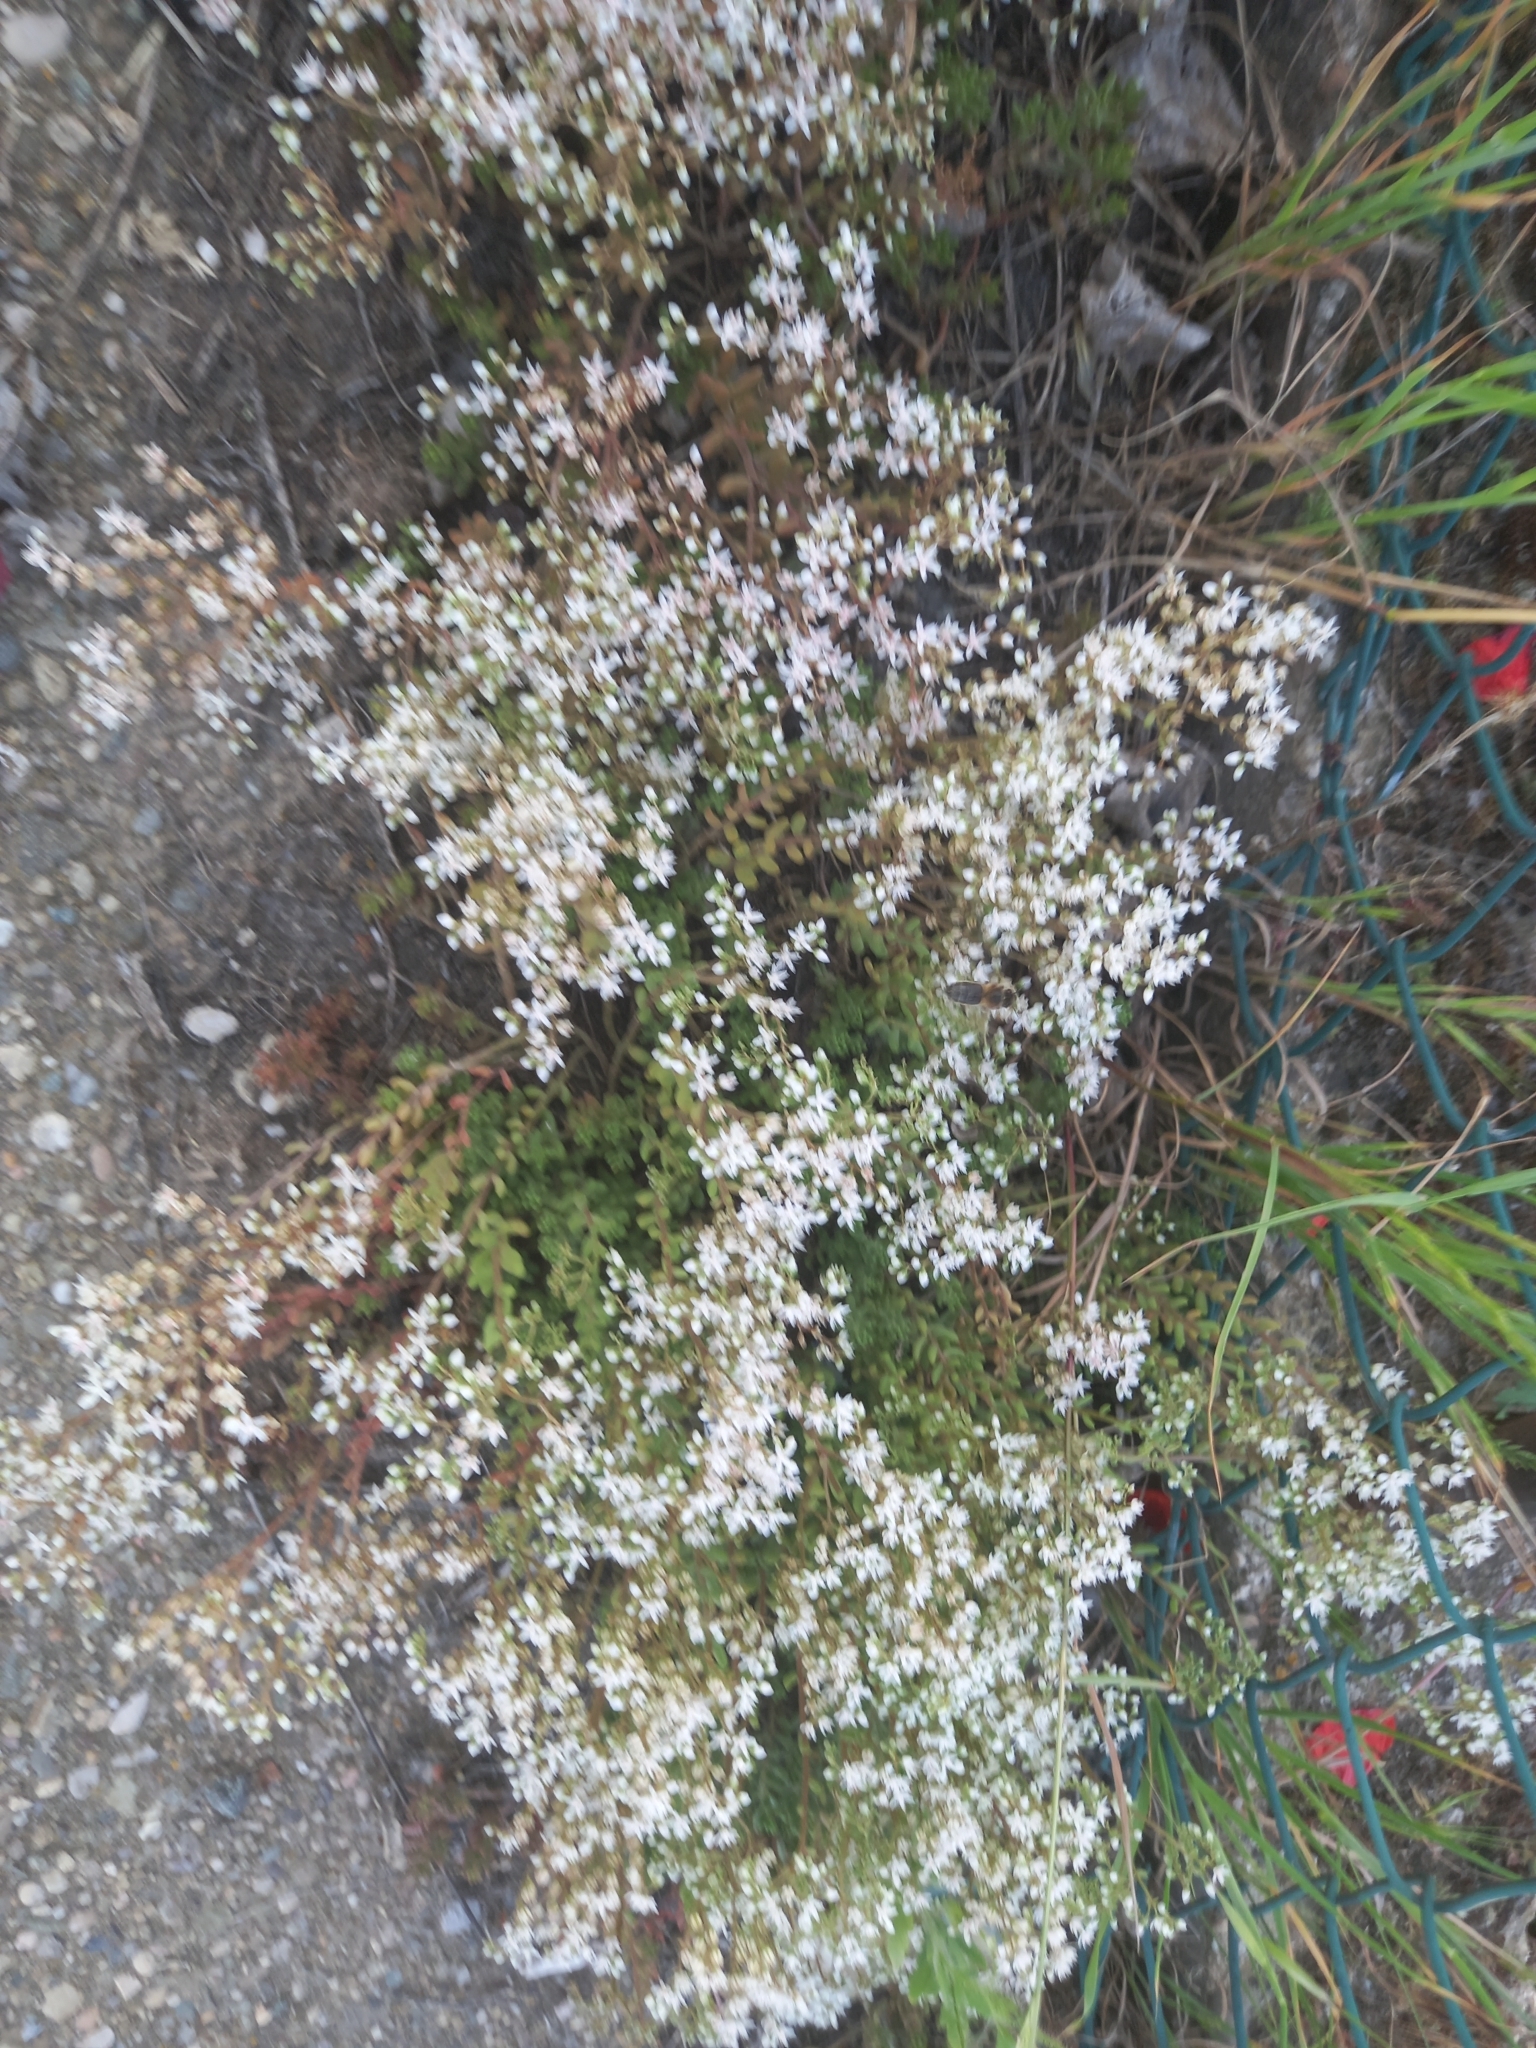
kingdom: Plantae
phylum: Tracheophyta
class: Magnoliopsida
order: Saxifragales
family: Crassulaceae
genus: Sedum
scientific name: Sedum album
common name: White stonecrop
